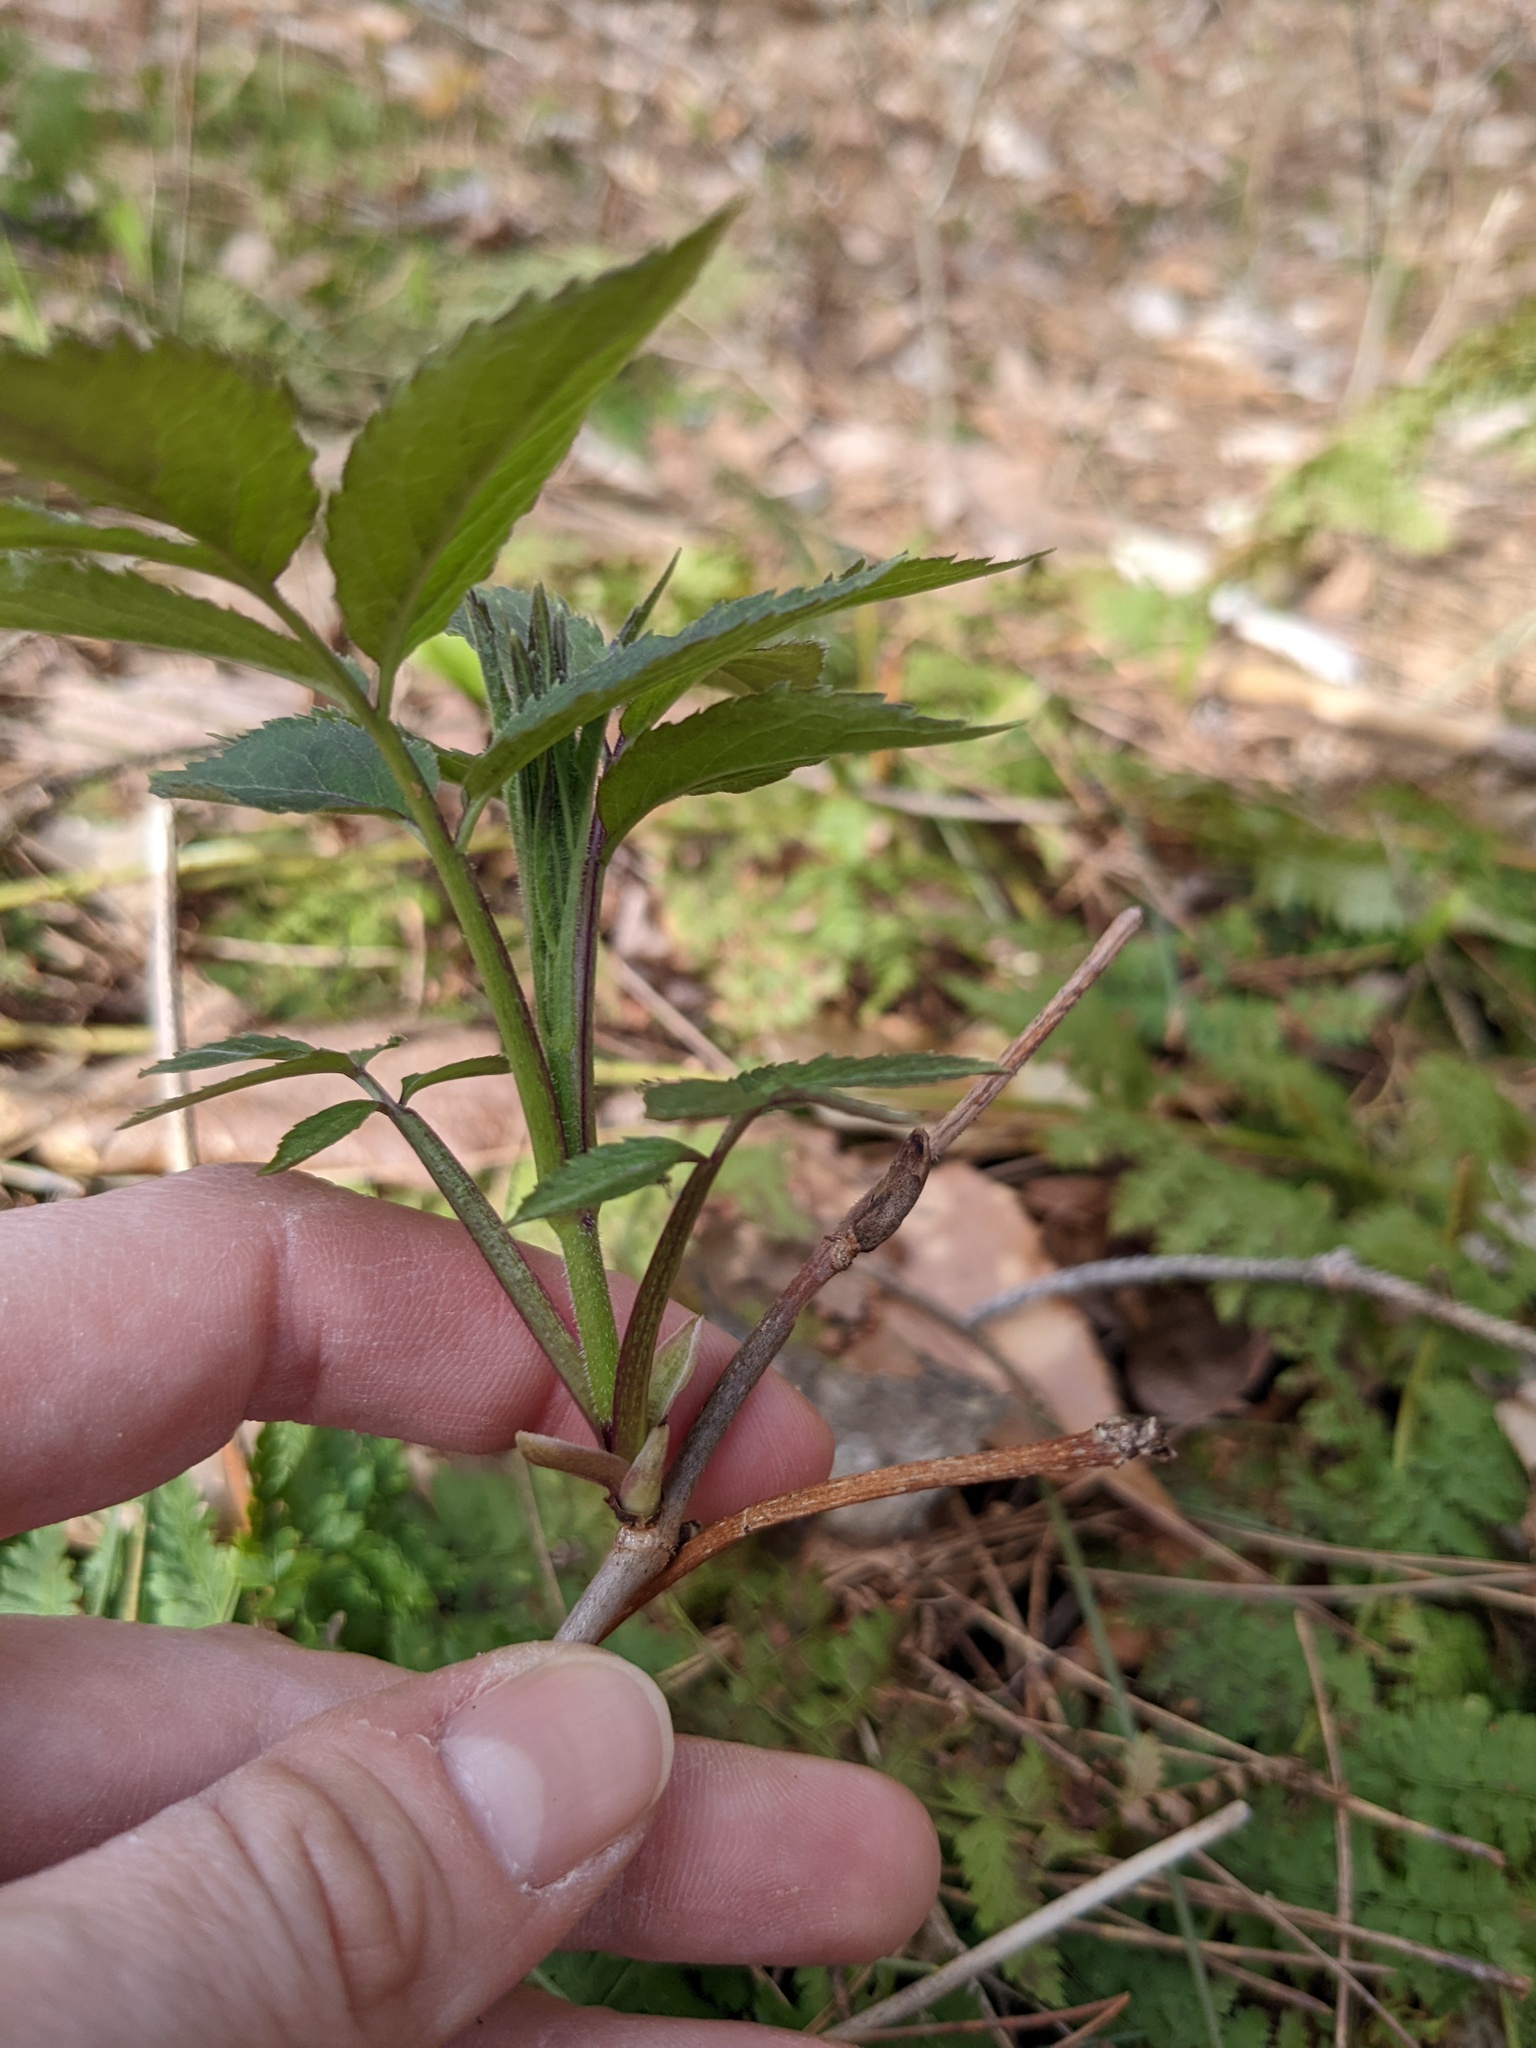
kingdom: Plantae
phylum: Tracheophyta
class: Magnoliopsida
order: Dipsacales
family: Viburnaceae
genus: Sambucus
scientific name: Sambucus racemosa
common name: Red-berried elder
